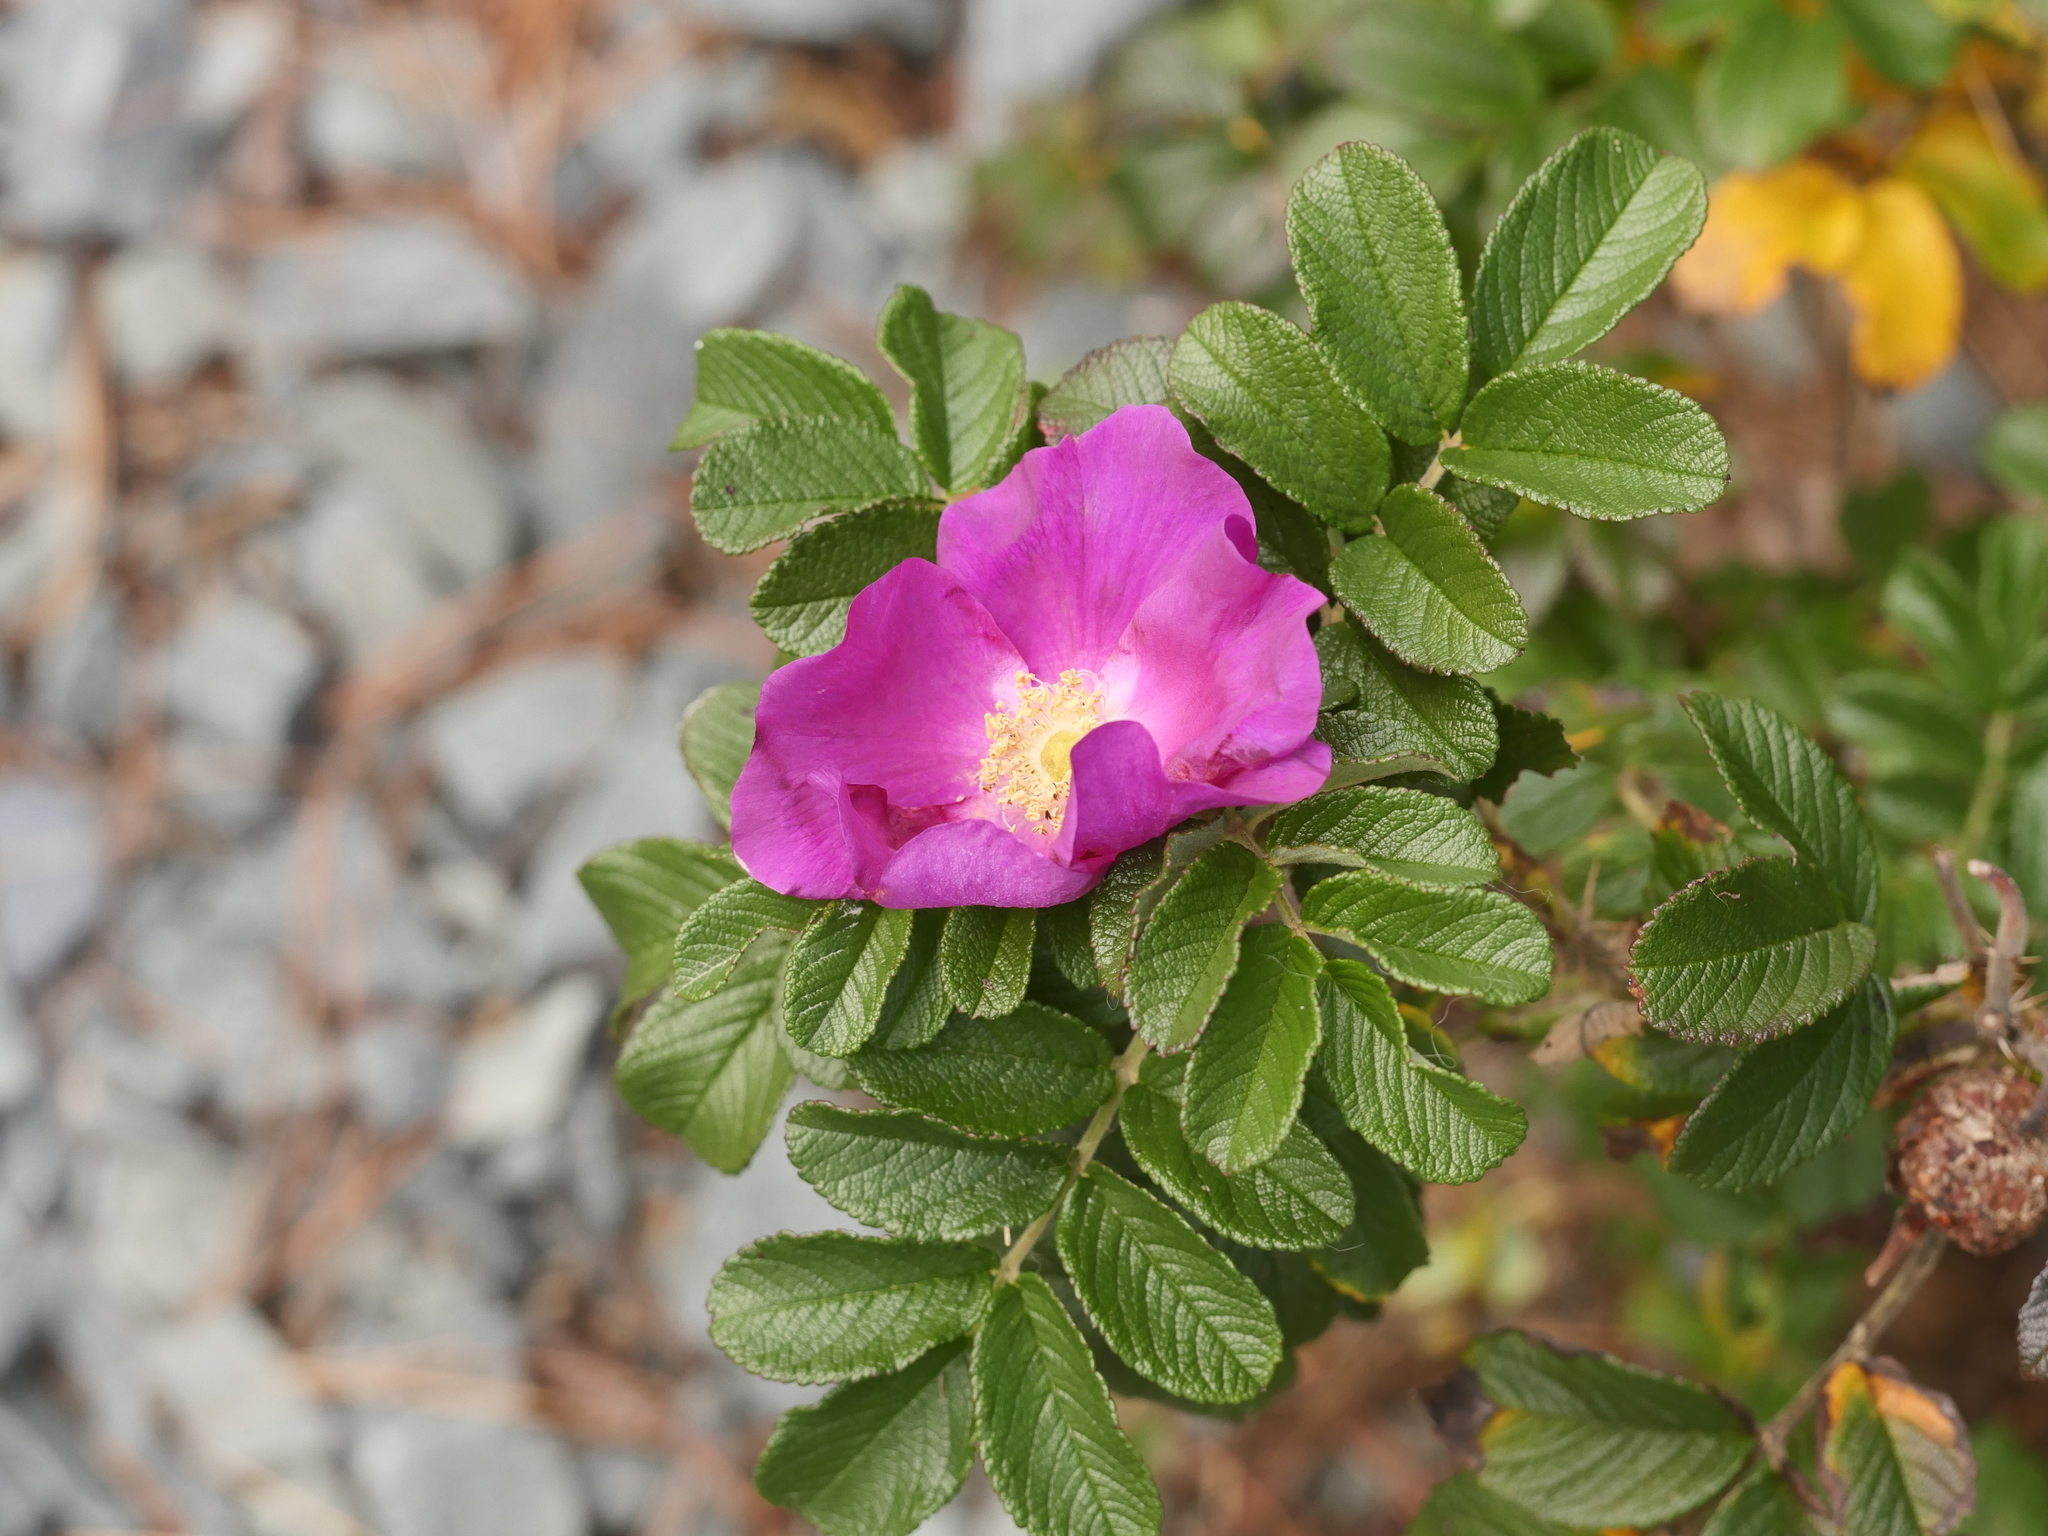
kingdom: Plantae
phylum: Tracheophyta
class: Magnoliopsida
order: Rosales
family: Rosaceae
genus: Rosa
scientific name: Rosa rugosa
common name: Japanese rose
